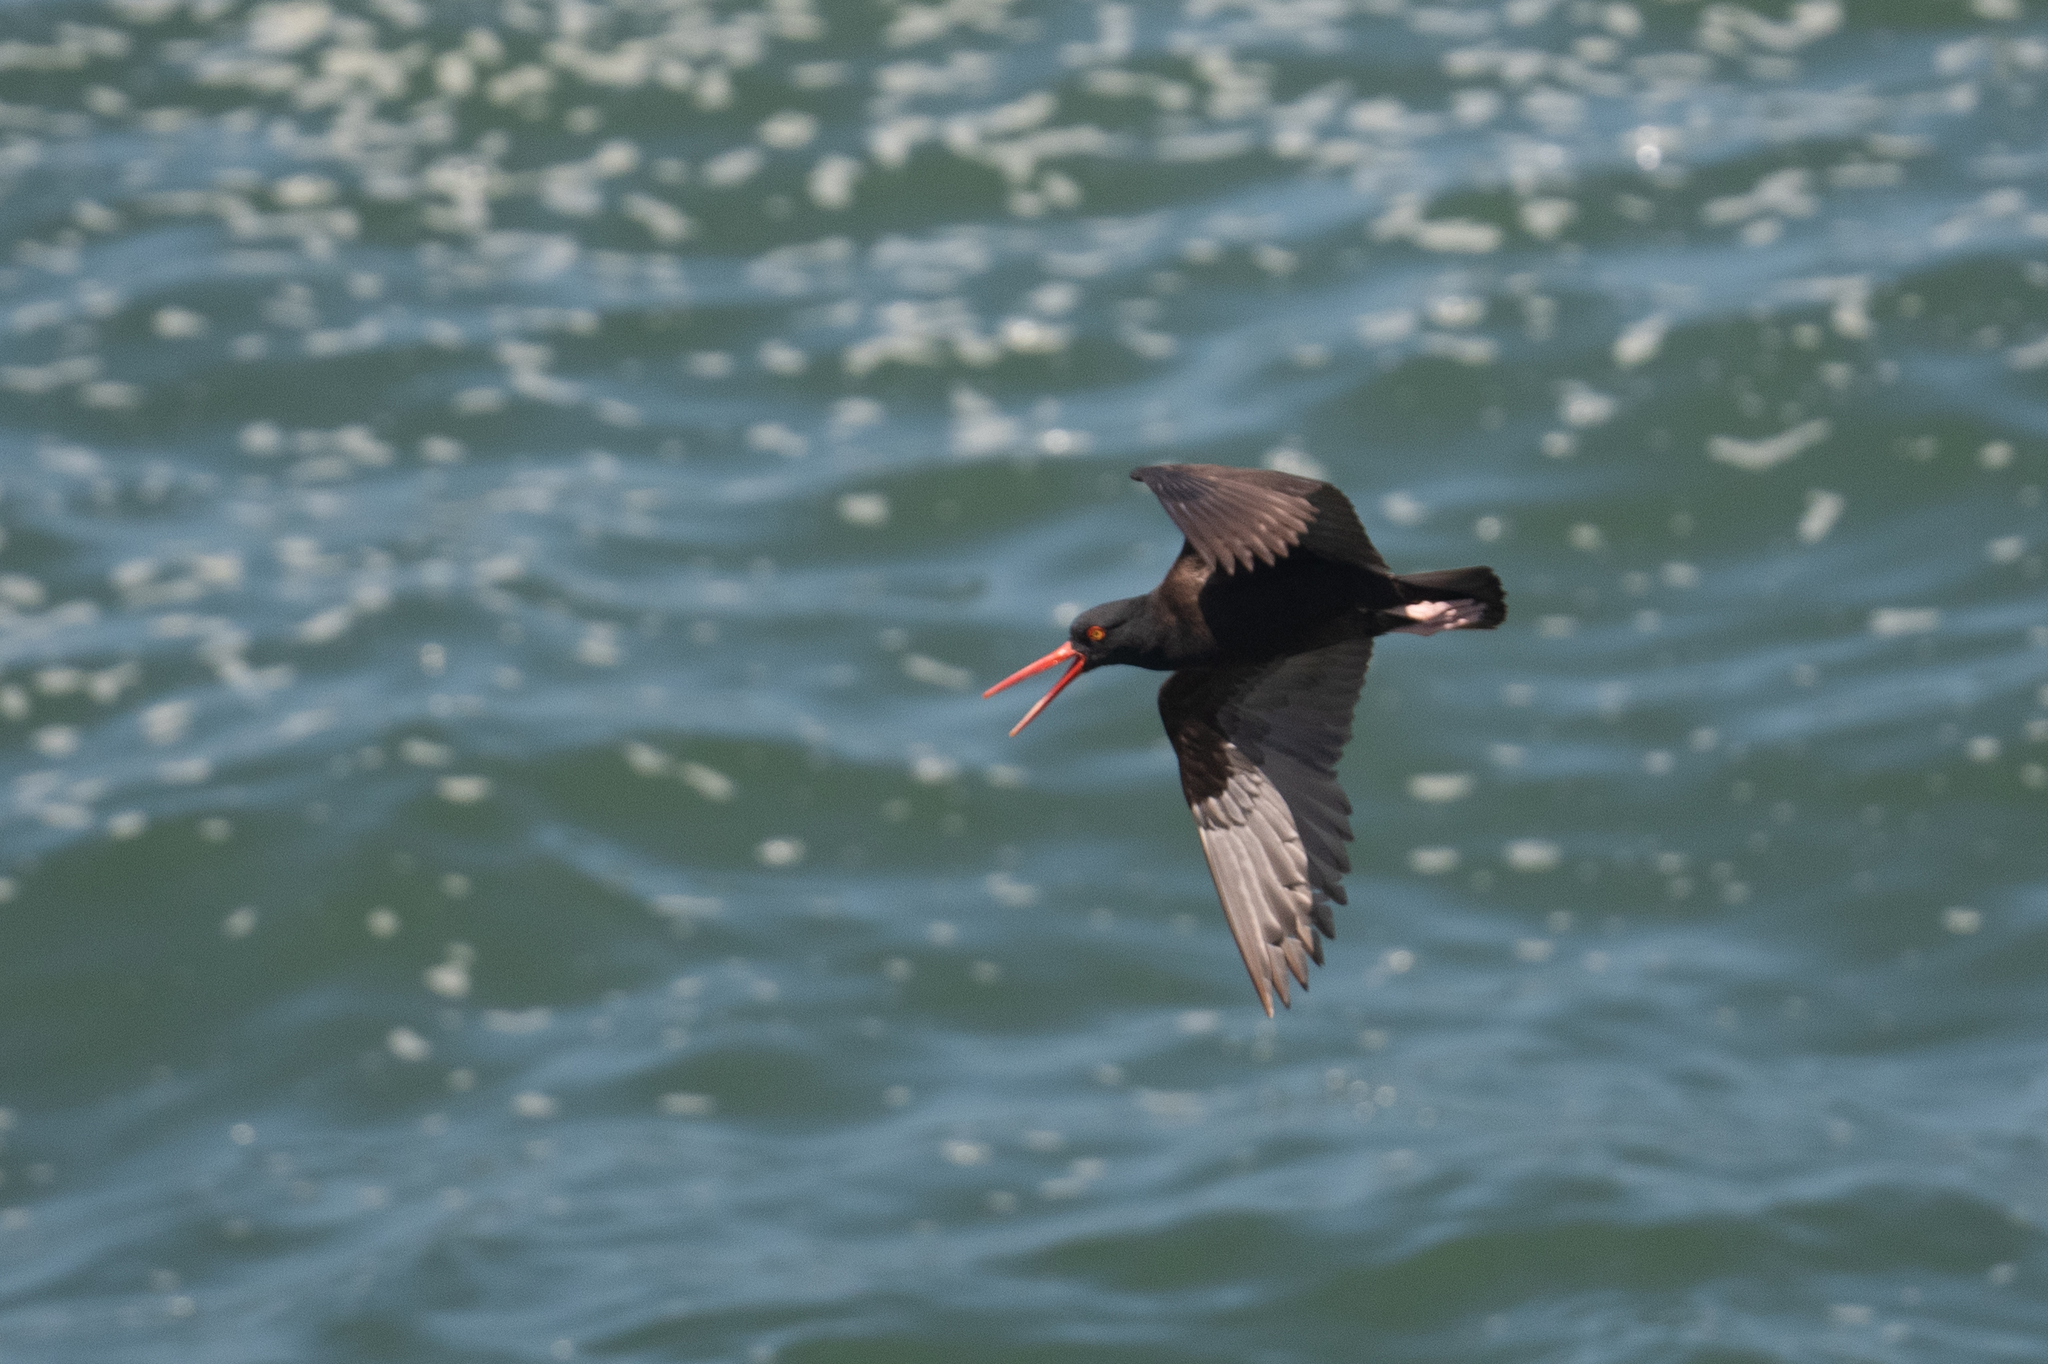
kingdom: Animalia
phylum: Chordata
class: Aves
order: Charadriiformes
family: Haematopodidae
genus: Haematopus
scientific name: Haematopus bachmani
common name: Black oystercatcher
